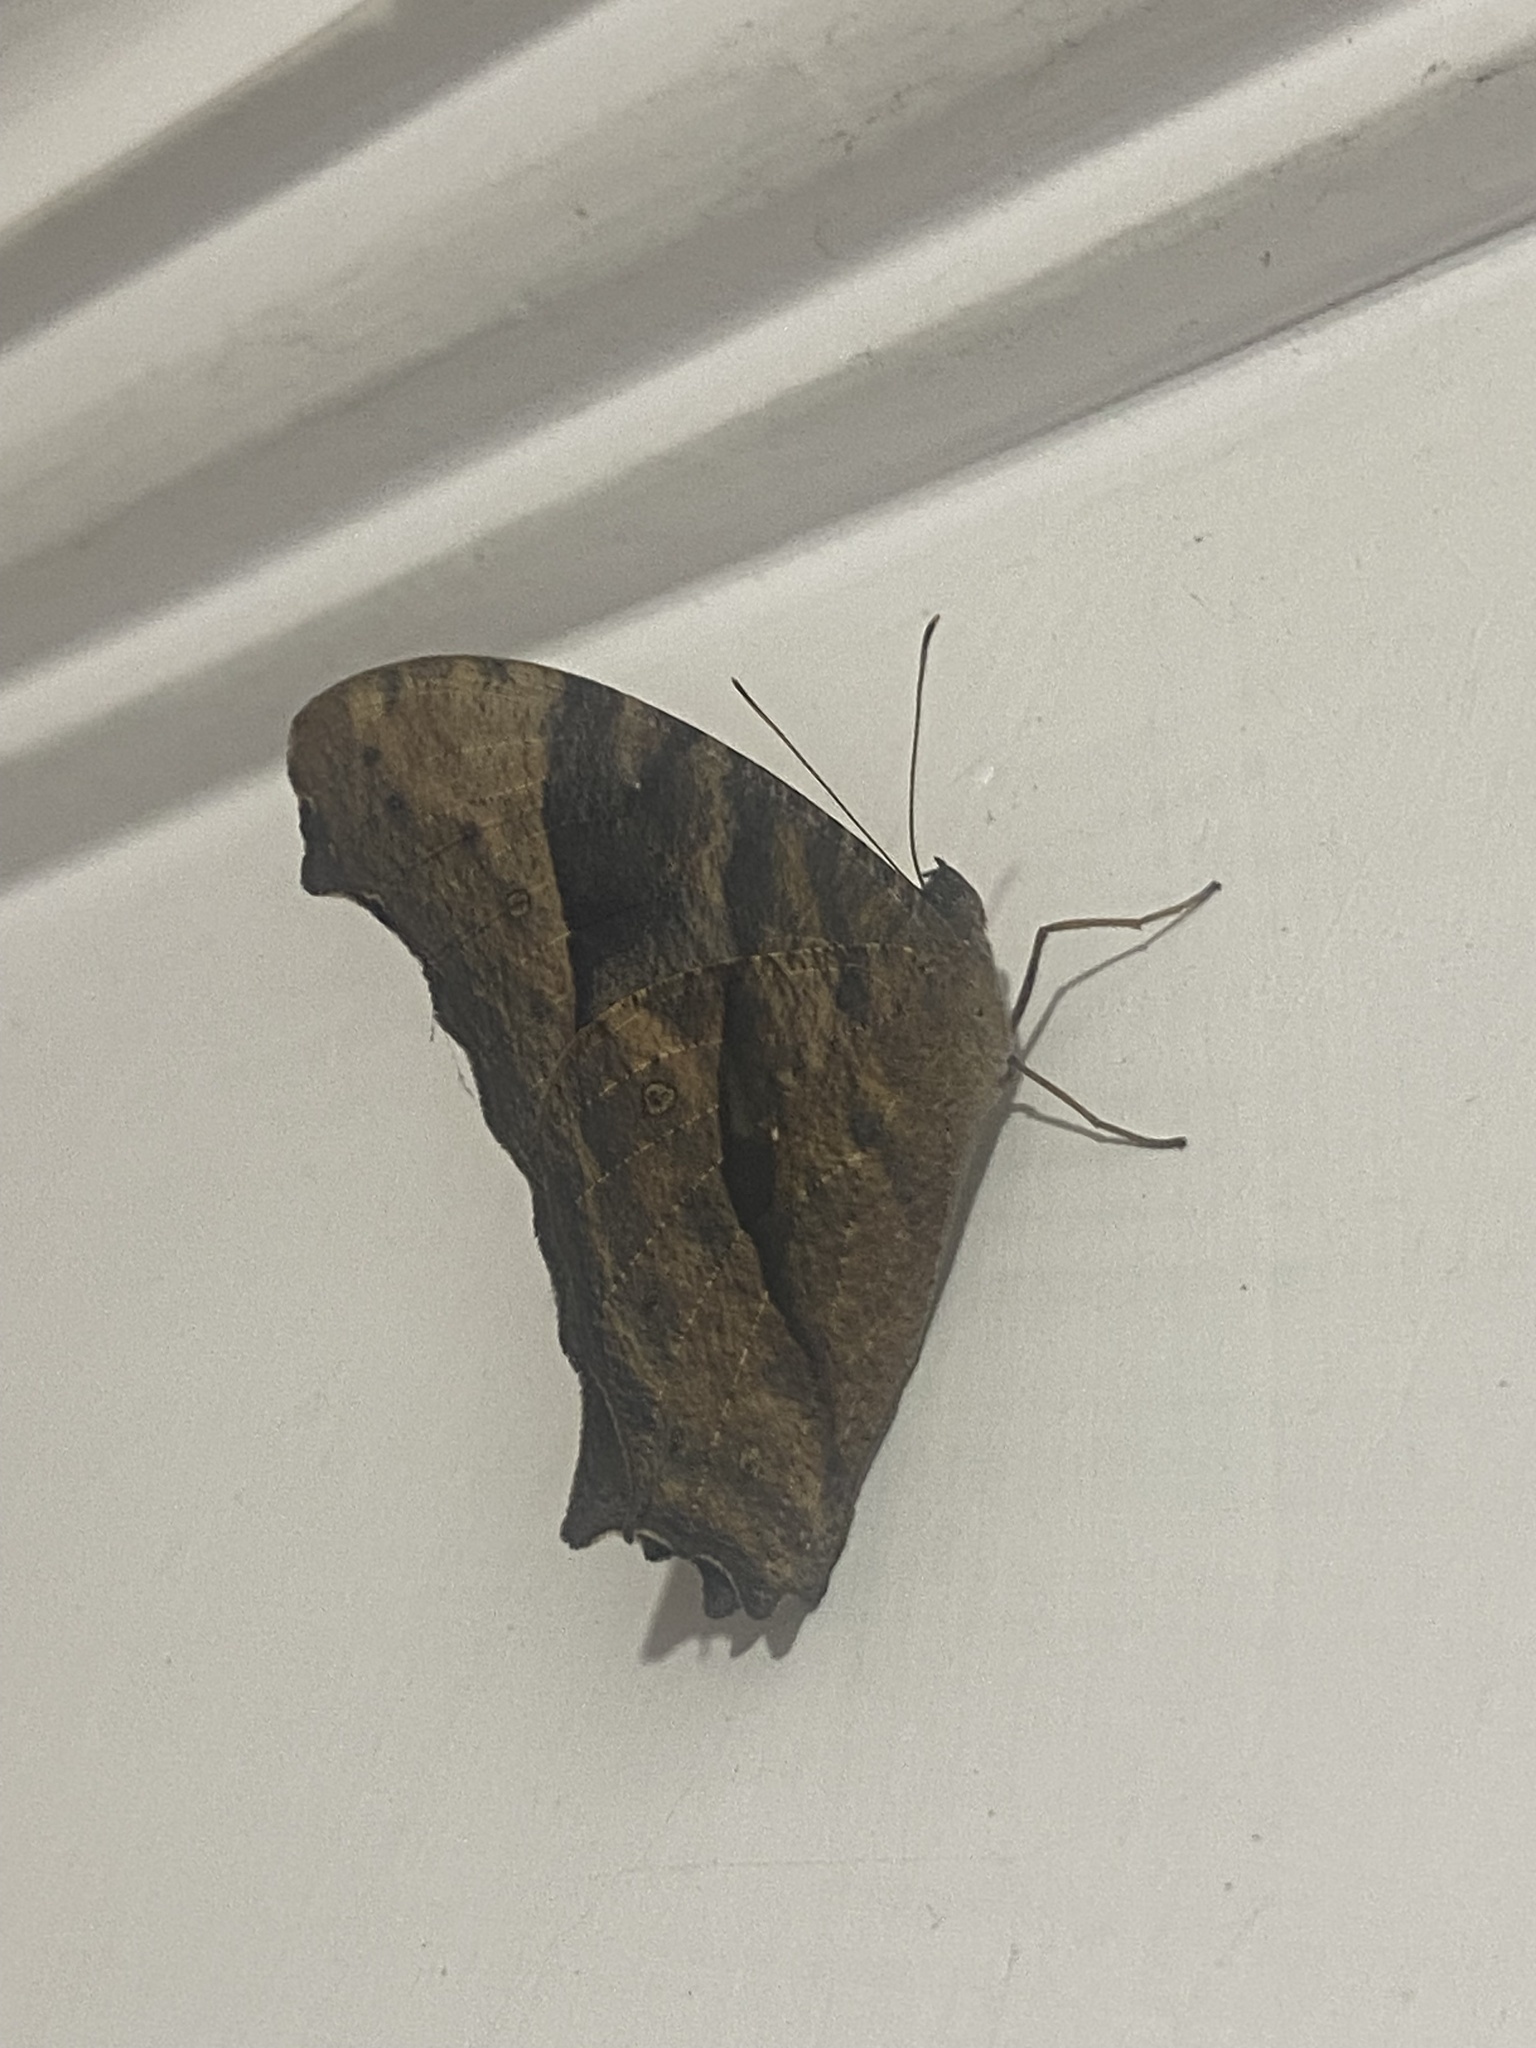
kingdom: Animalia
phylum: Arthropoda
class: Insecta
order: Lepidoptera
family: Nymphalidae
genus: Melanitis
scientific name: Melanitis leda
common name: Twilight brown
